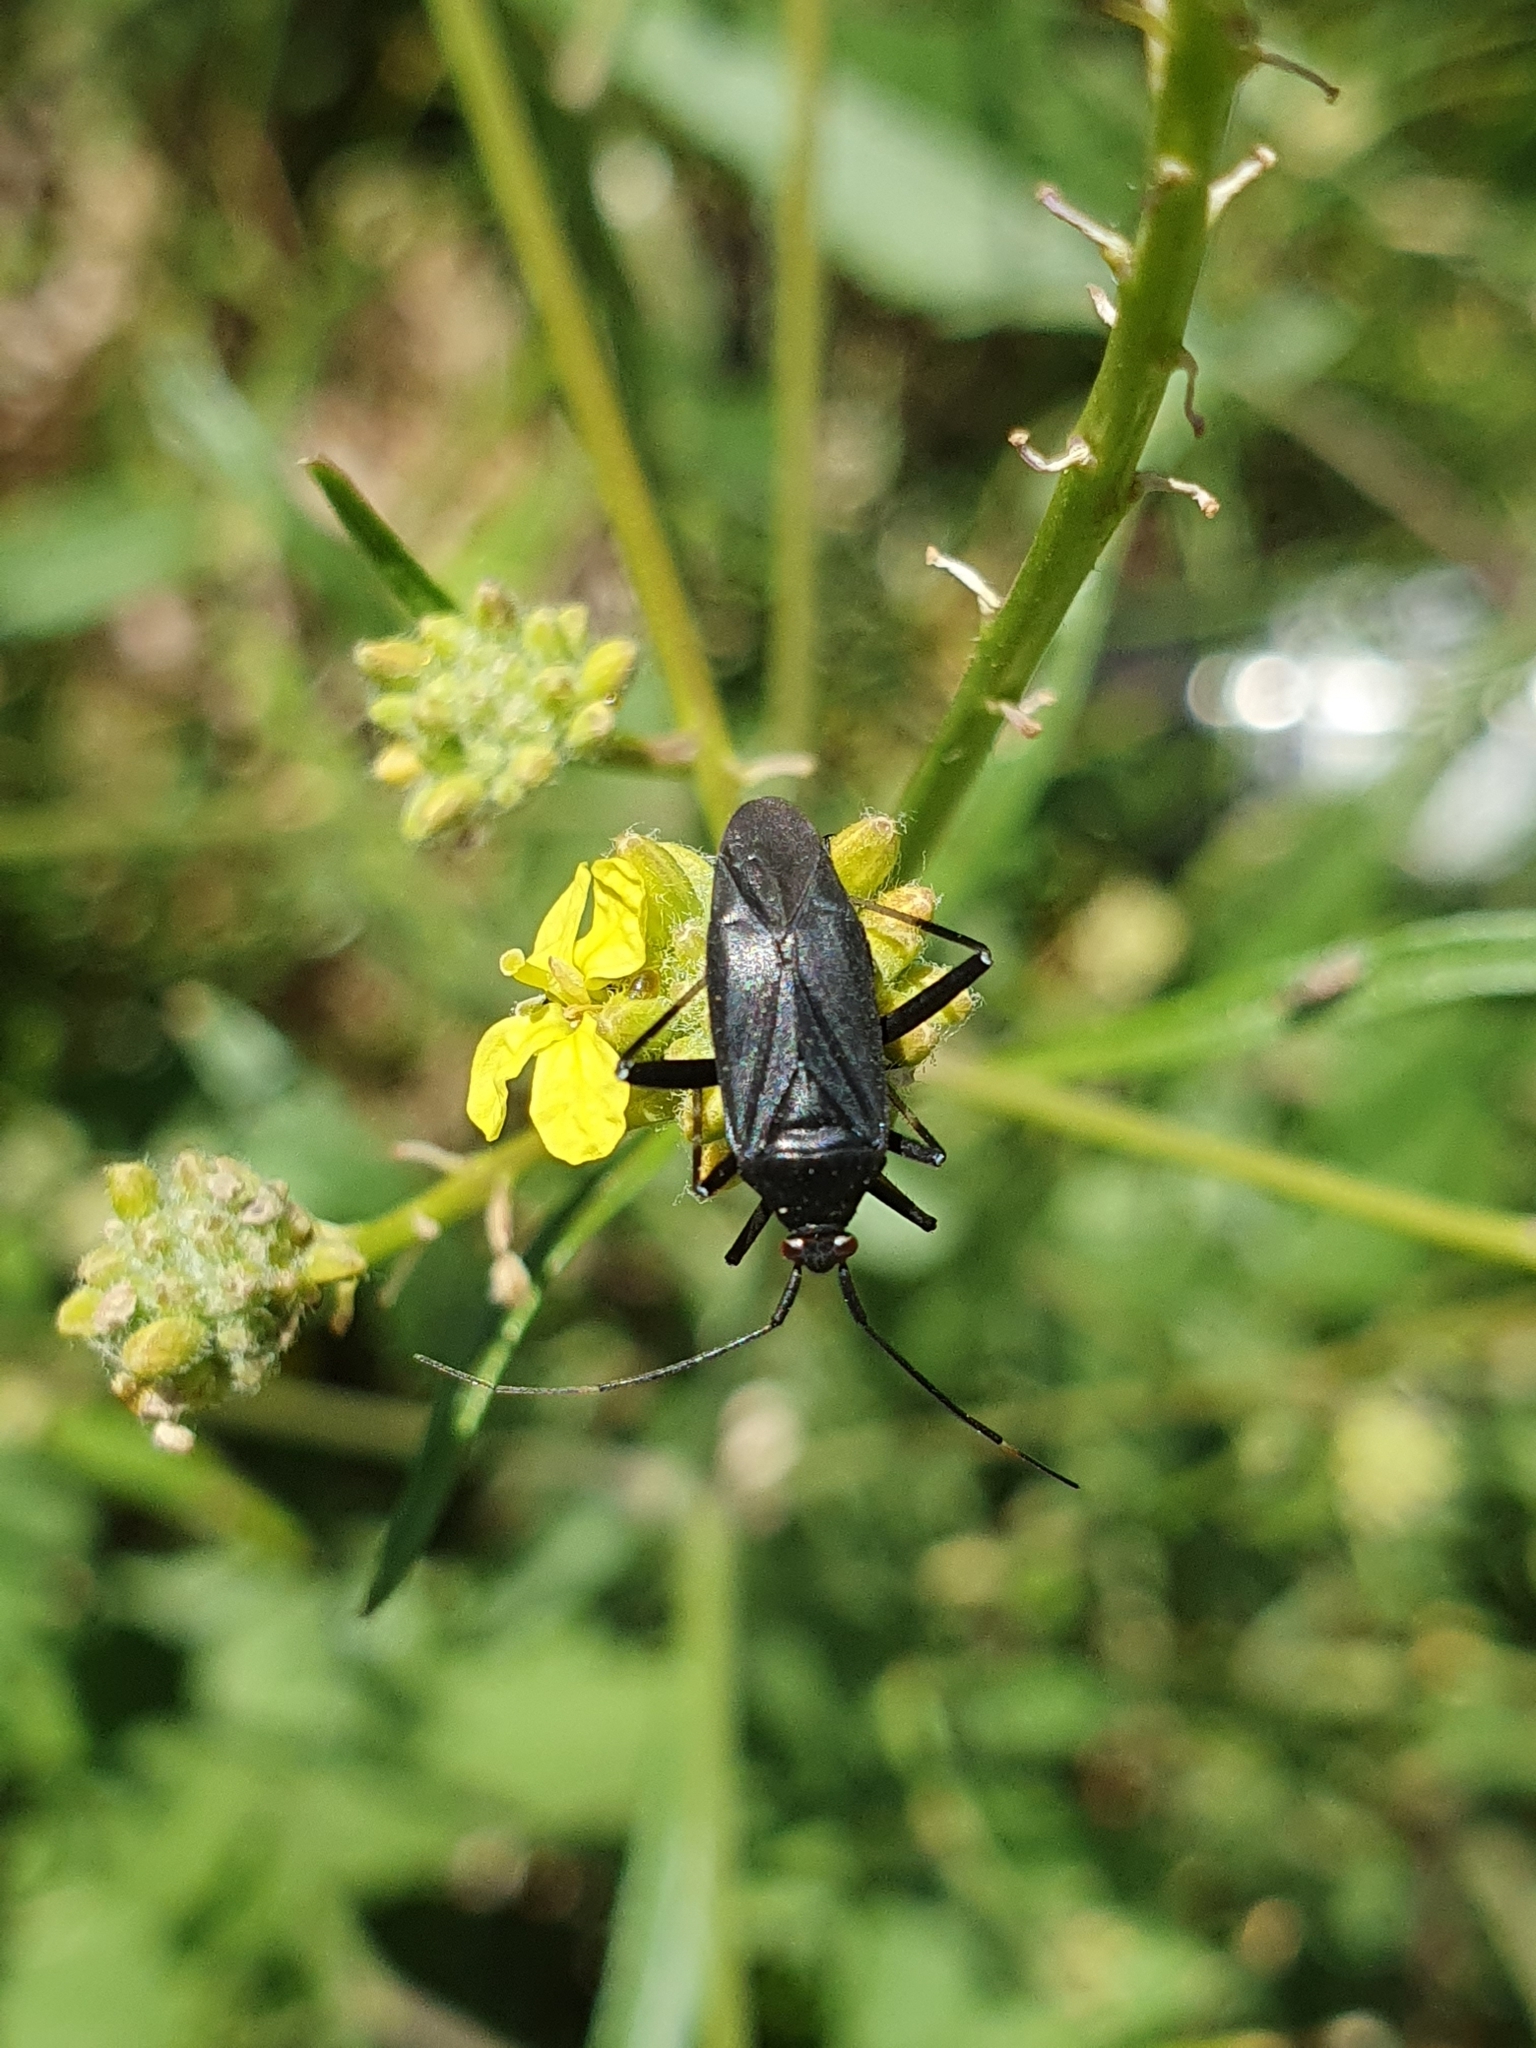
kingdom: Animalia
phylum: Arthropoda
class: Insecta
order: Hemiptera
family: Miridae
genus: Calocoris
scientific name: Calocoris nemoralis
